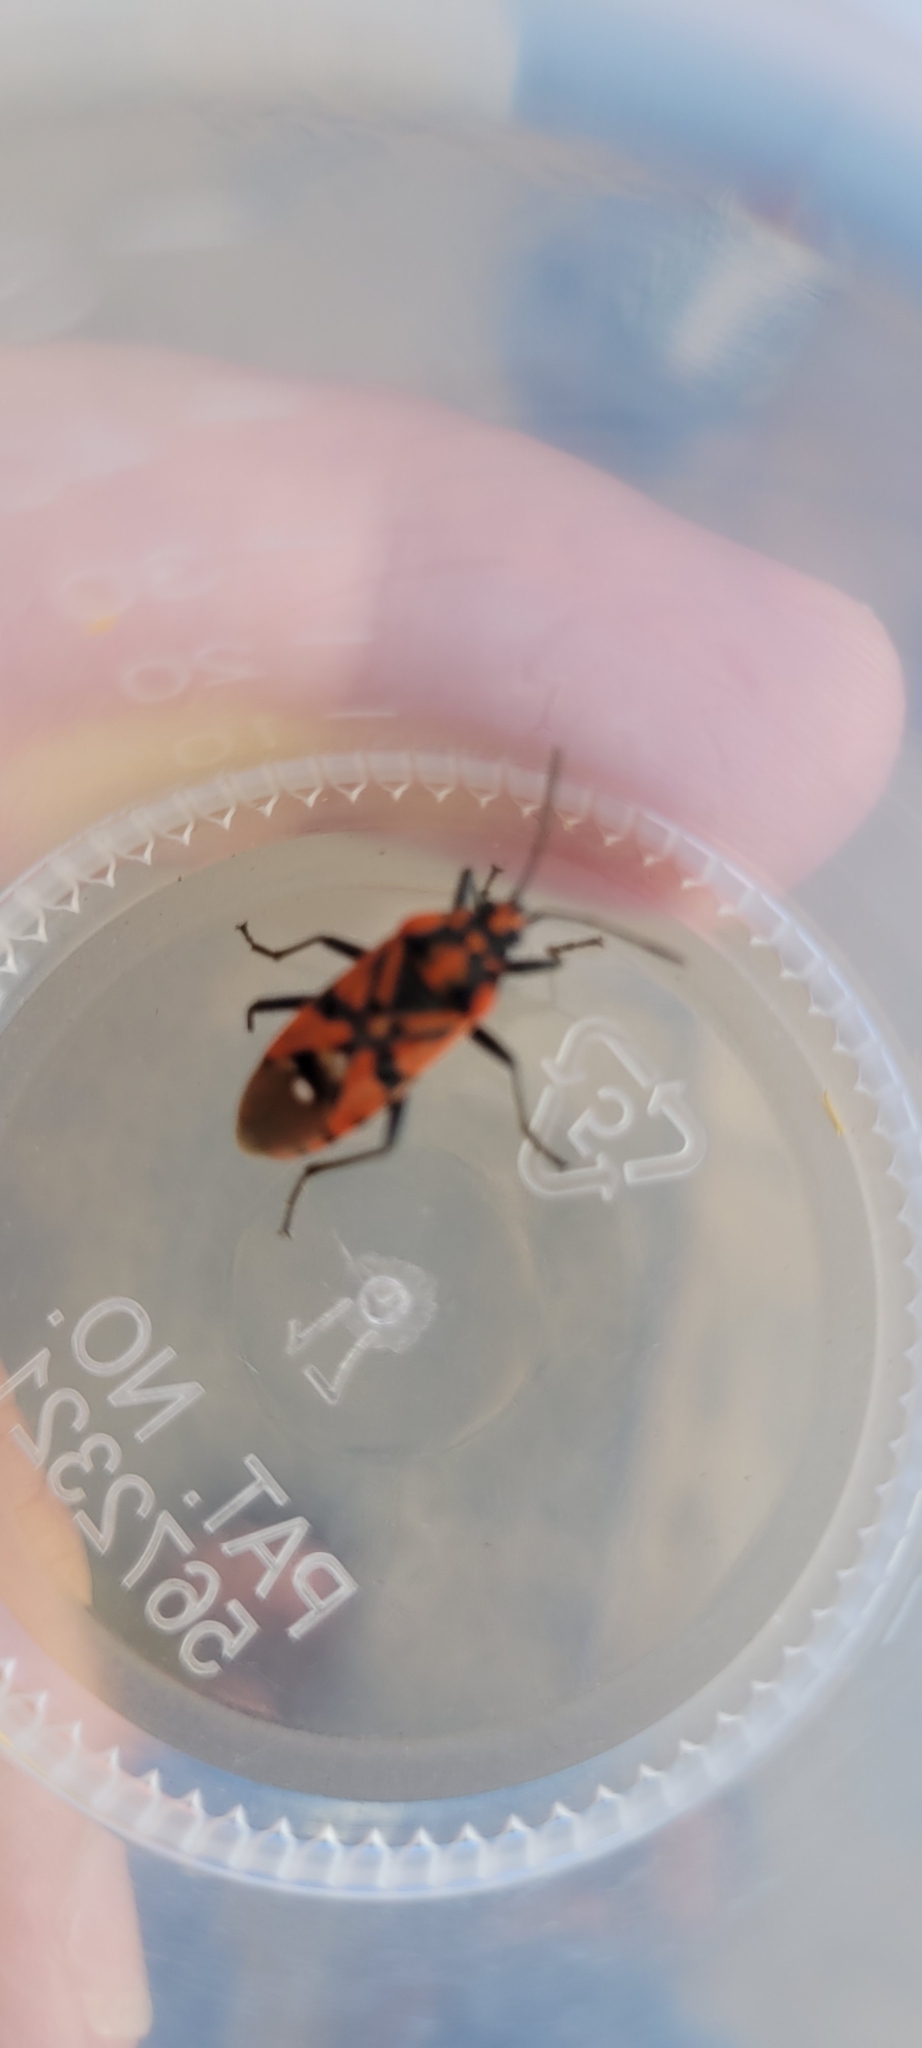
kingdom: Animalia
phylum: Arthropoda
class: Insecta
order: Hemiptera
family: Lygaeidae
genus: Spilostethus
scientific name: Spilostethus pandurus
